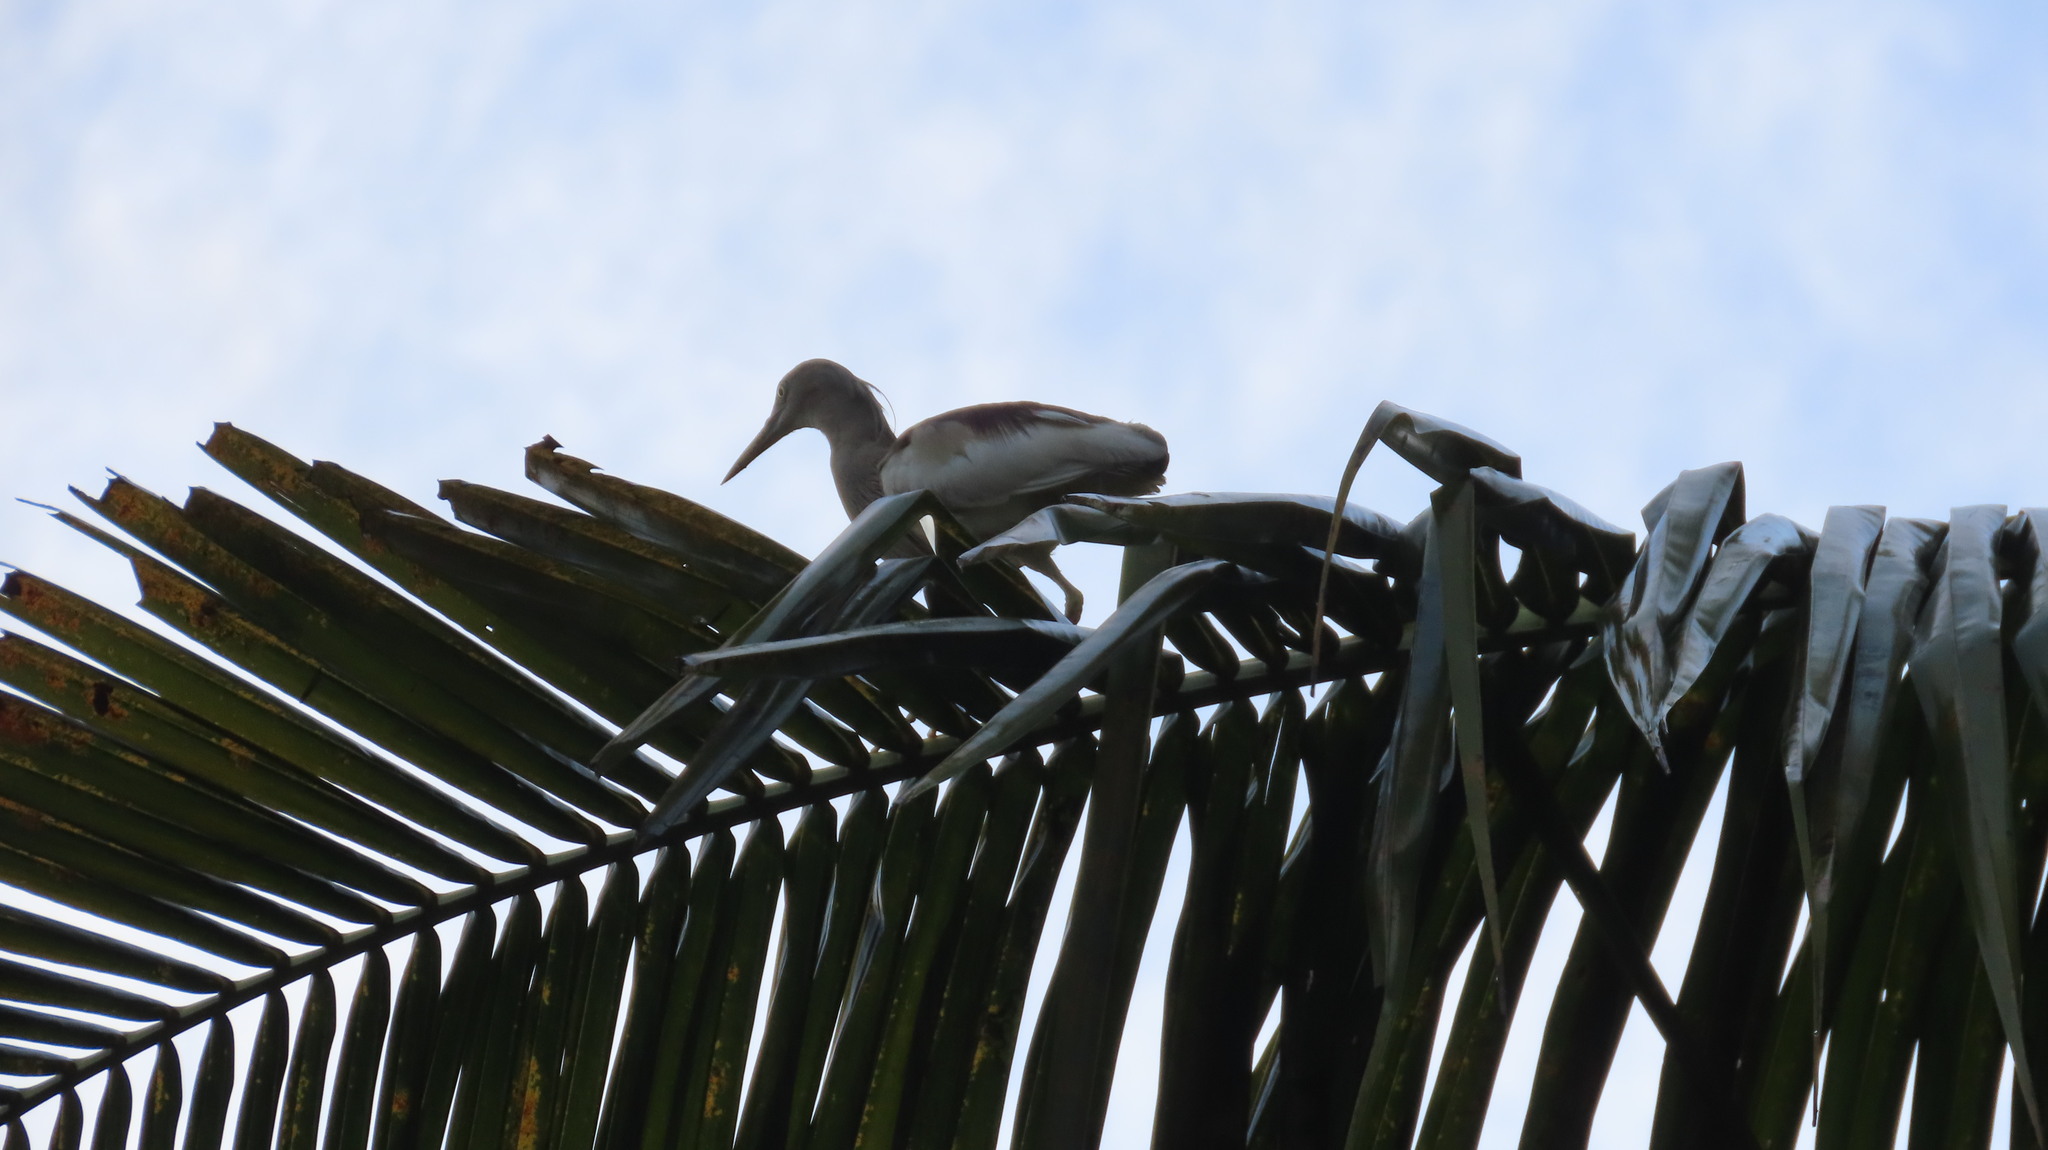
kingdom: Animalia
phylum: Chordata
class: Aves
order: Pelecaniformes
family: Ardeidae
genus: Ardeola
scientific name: Ardeola grayii
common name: Indian pond heron
